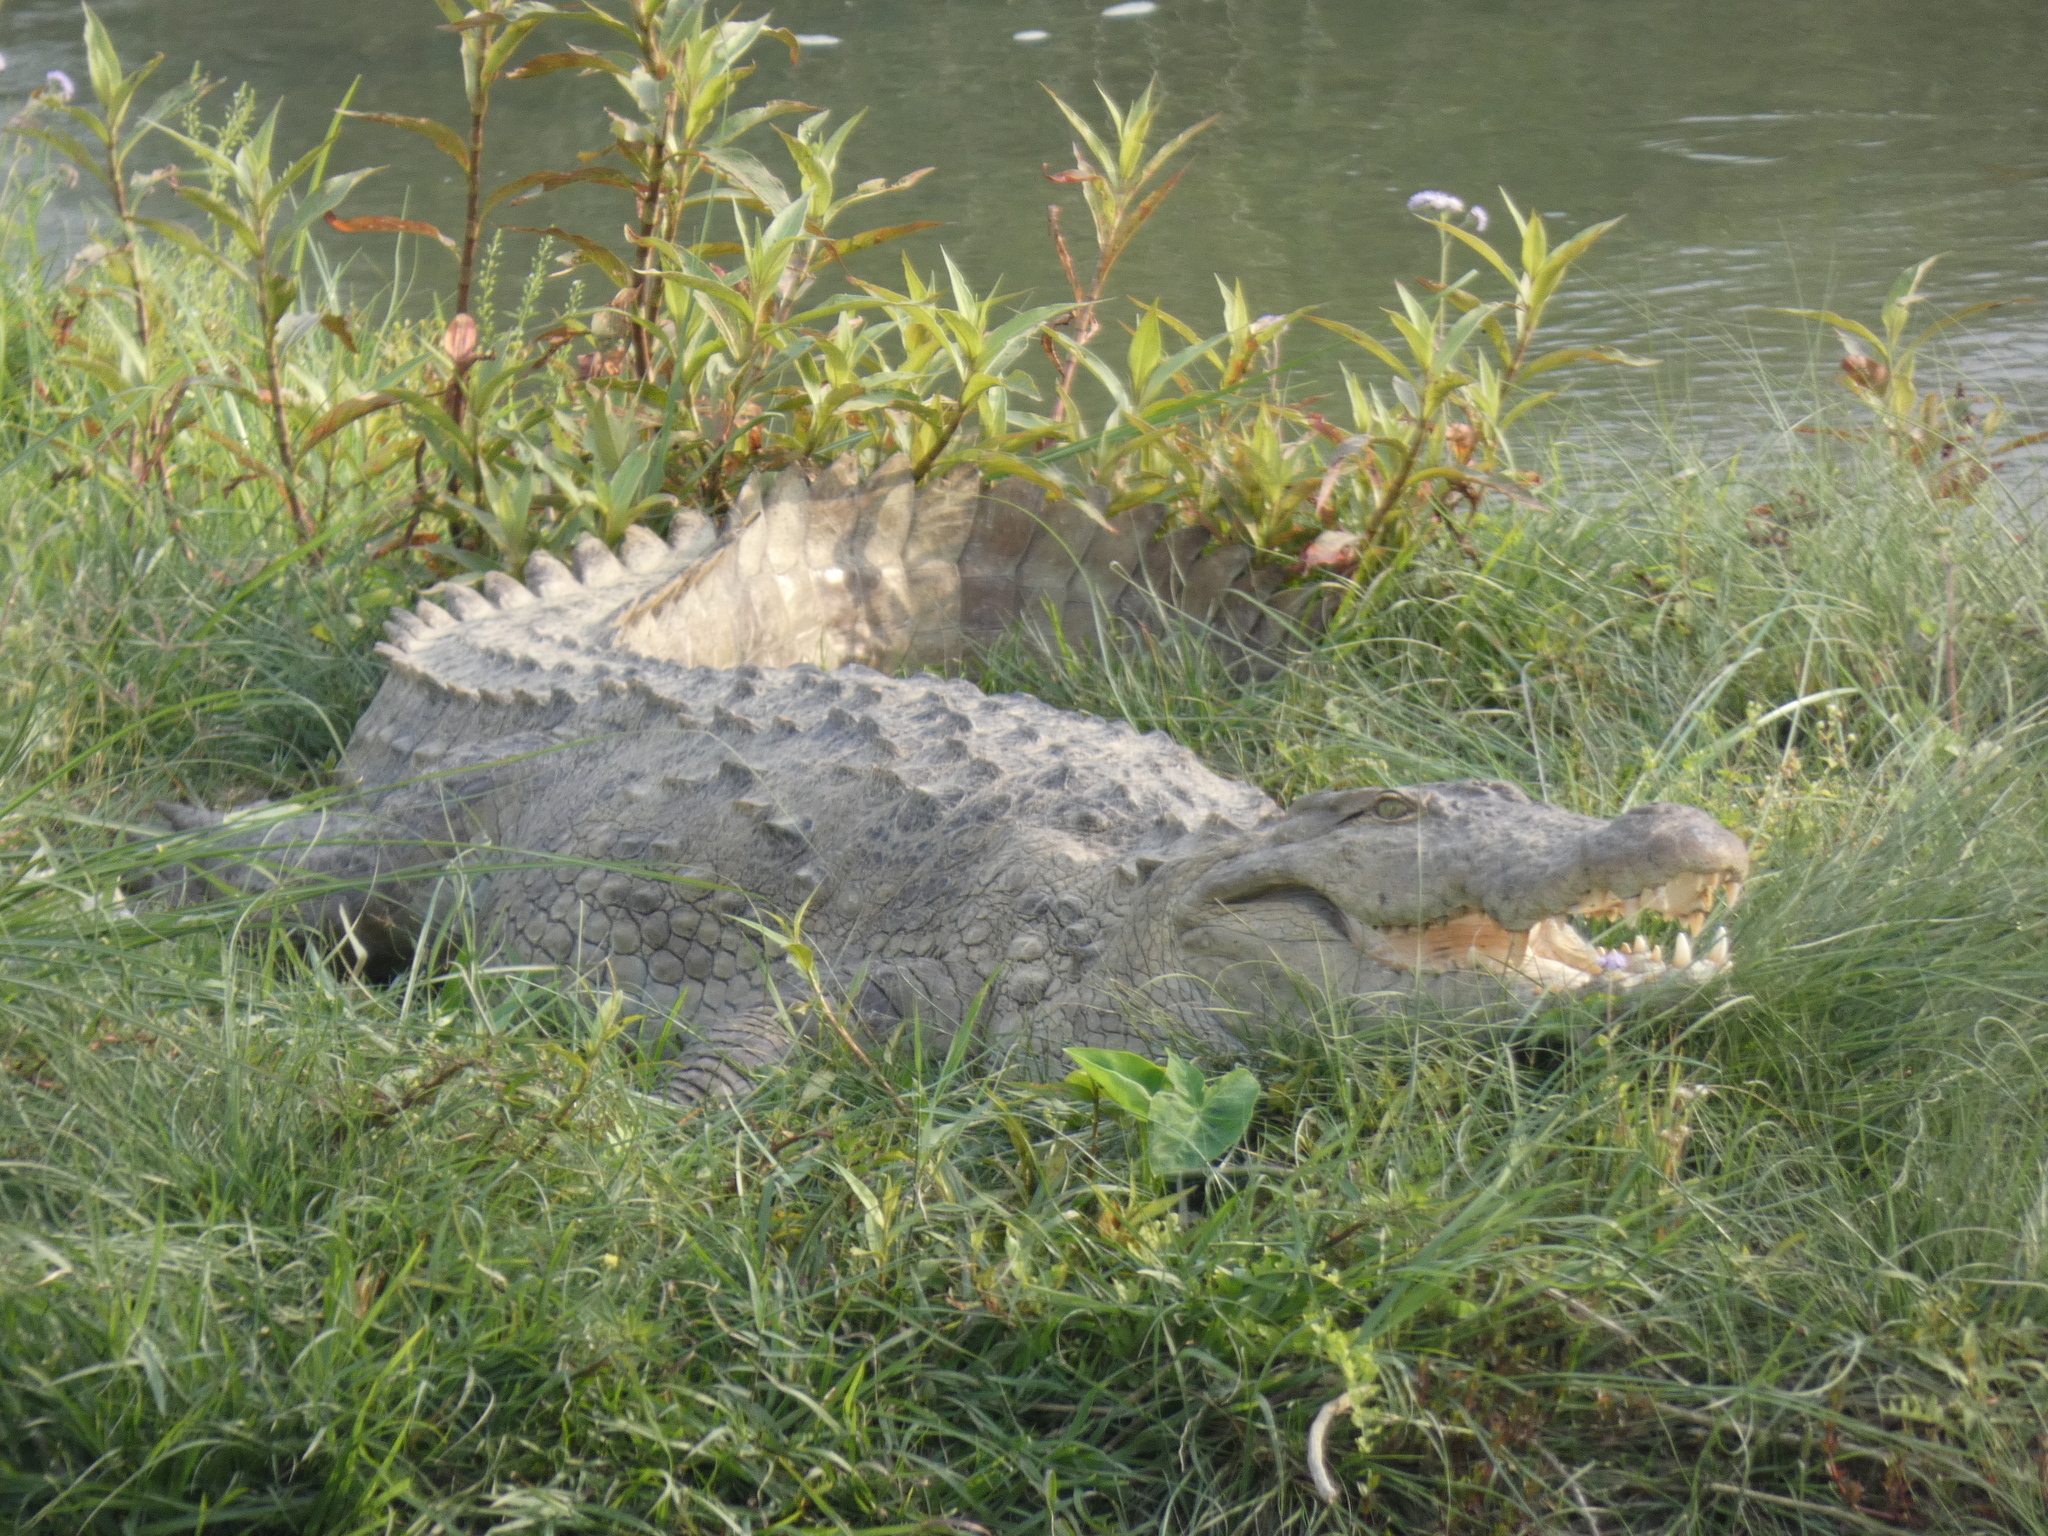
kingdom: Animalia
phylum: Chordata
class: Crocodylia
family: Crocodylidae
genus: Crocodylus
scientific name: Crocodylus palustris
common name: Mugger crocodile
